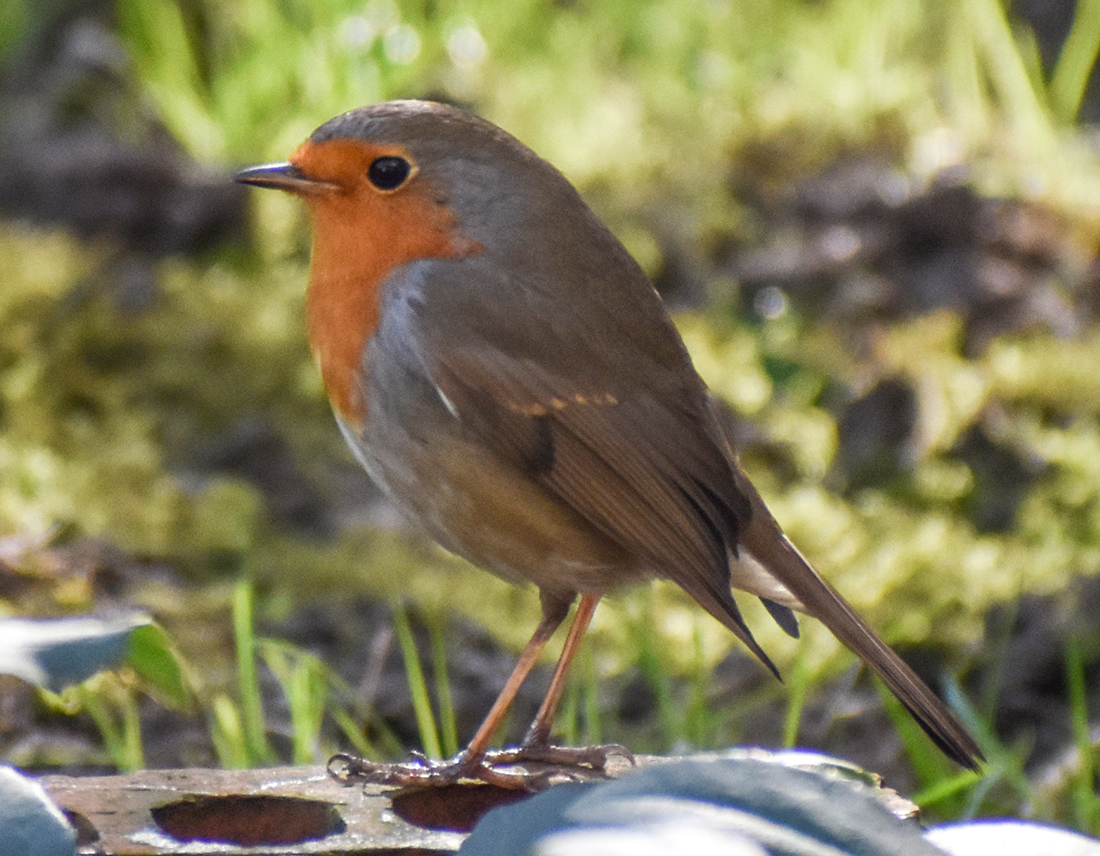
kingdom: Animalia
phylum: Chordata
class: Aves
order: Passeriformes
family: Muscicapidae
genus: Erithacus
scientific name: Erithacus rubecula
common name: European robin
